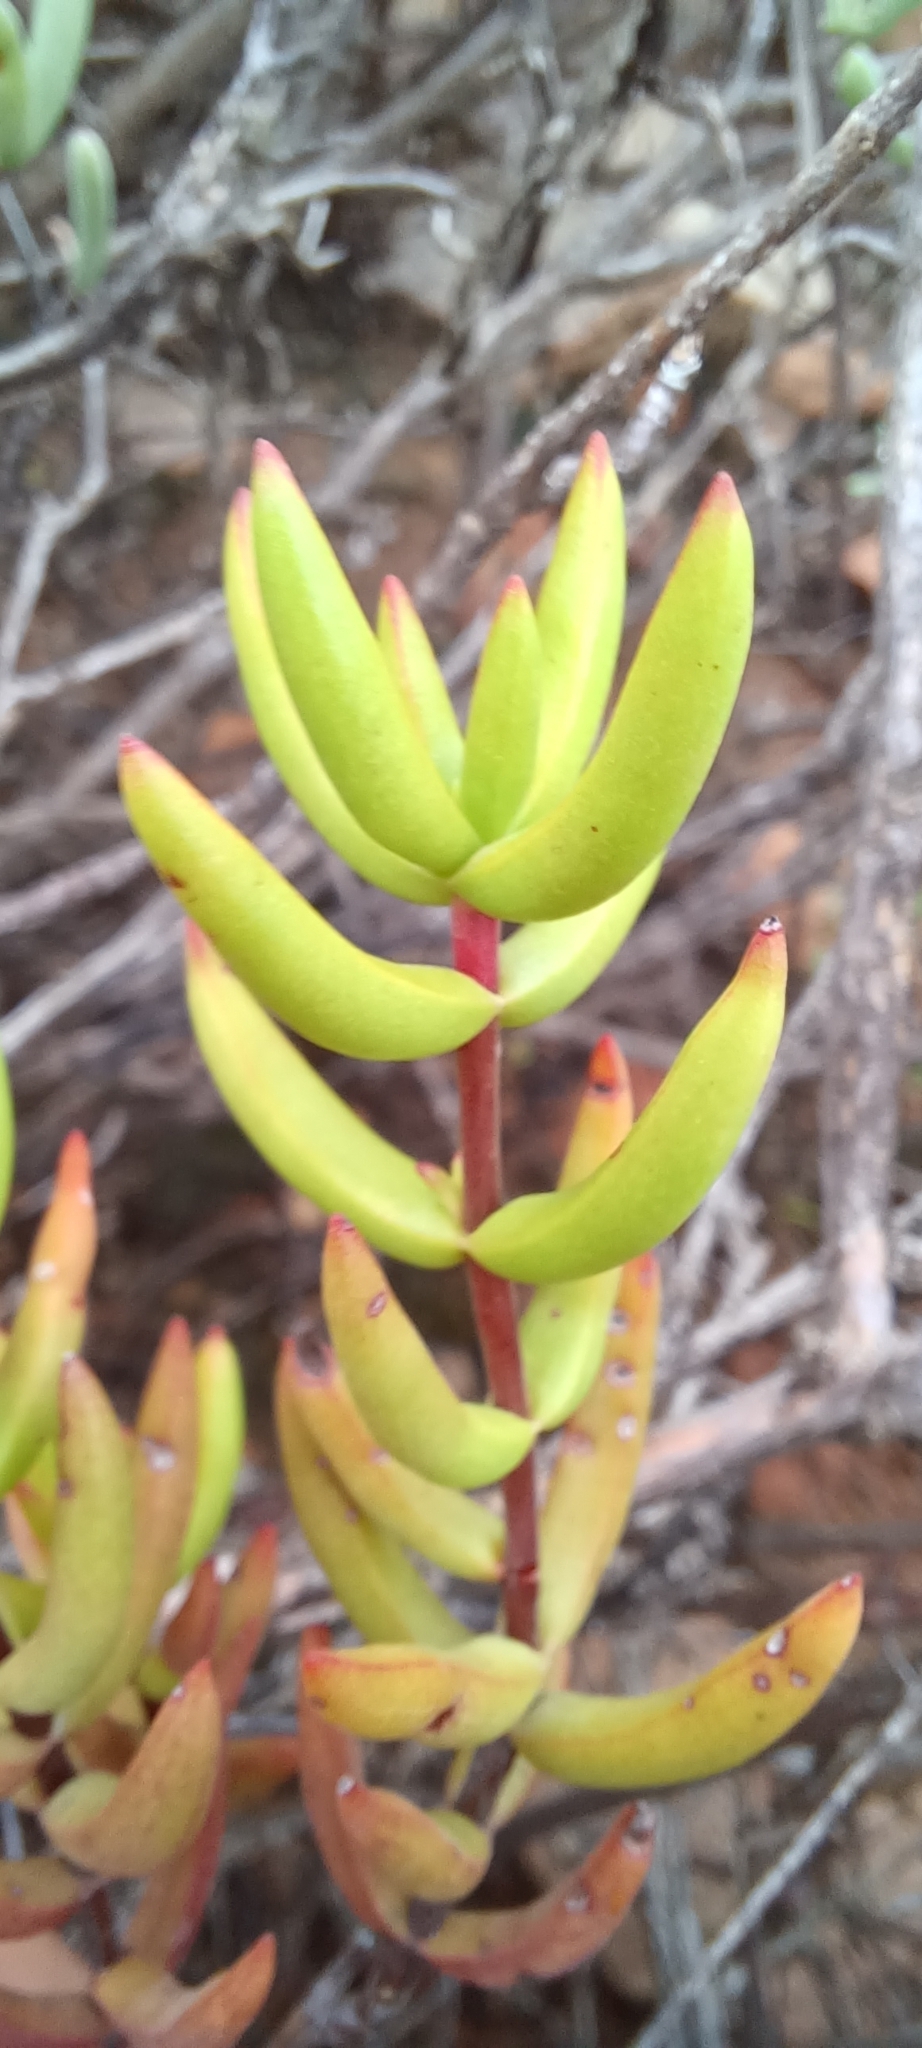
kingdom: Plantae
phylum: Tracheophyta
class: Magnoliopsida
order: Saxifragales
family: Crassulaceae
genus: Crassula
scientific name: Crassula subaphylla
